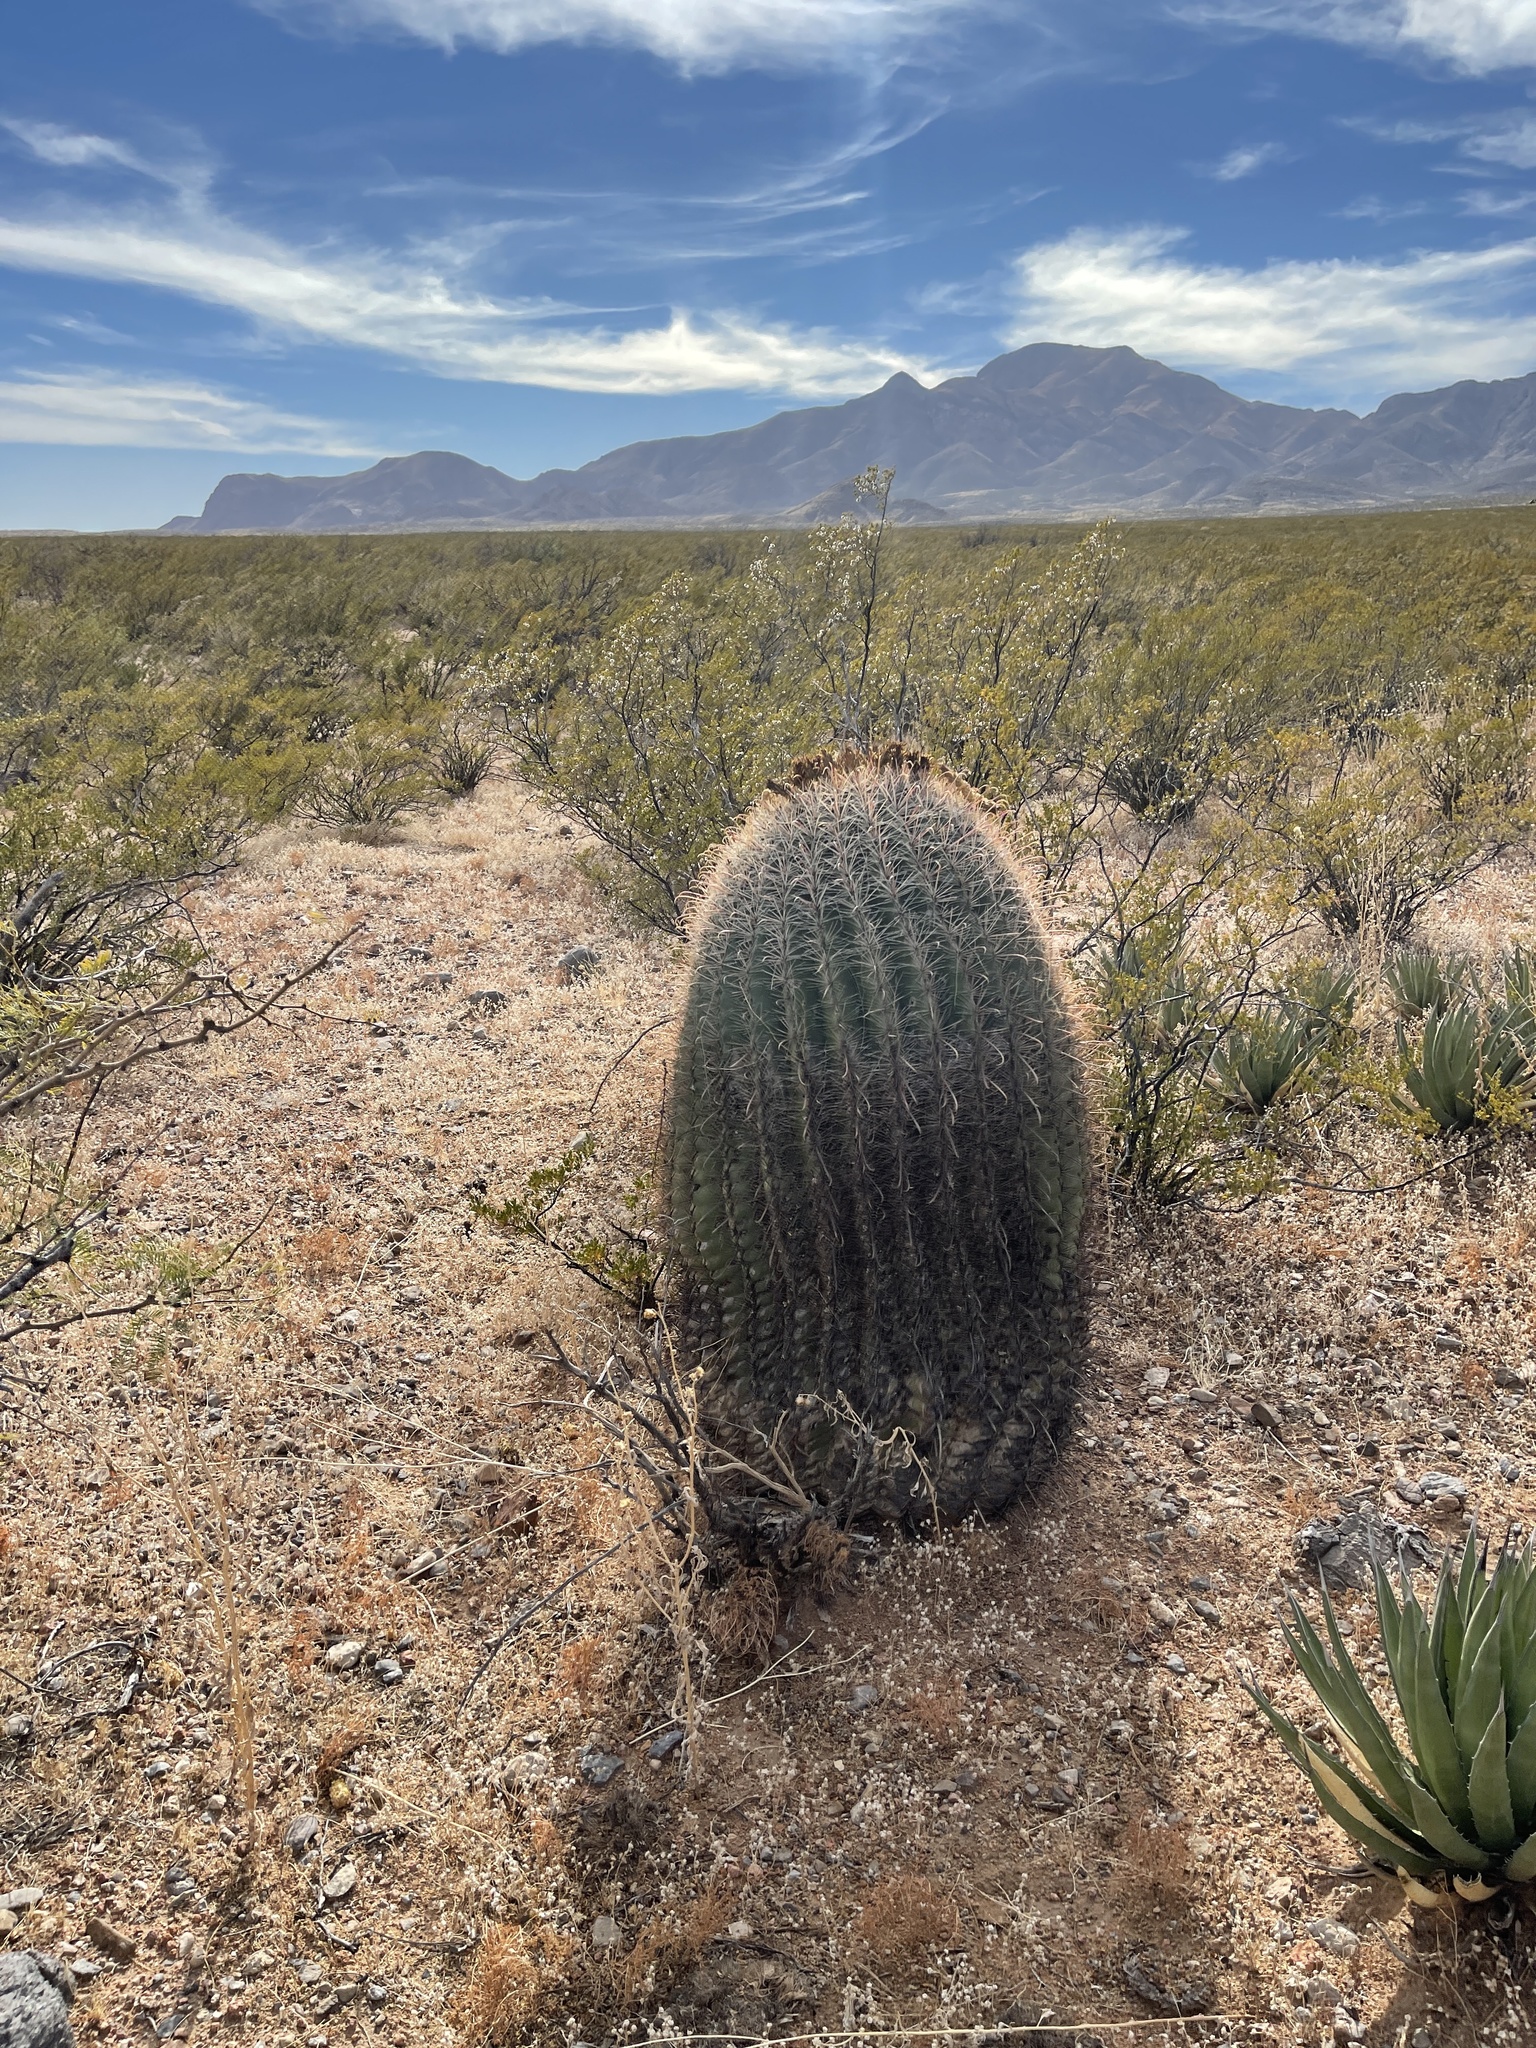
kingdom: Plantae
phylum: Tracheophyta
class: Magnoliopsida
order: Caryophyllales
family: Cactaceae
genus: Ferocactus
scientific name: Ferocactus wislizeni
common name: Candy barrel cactus
